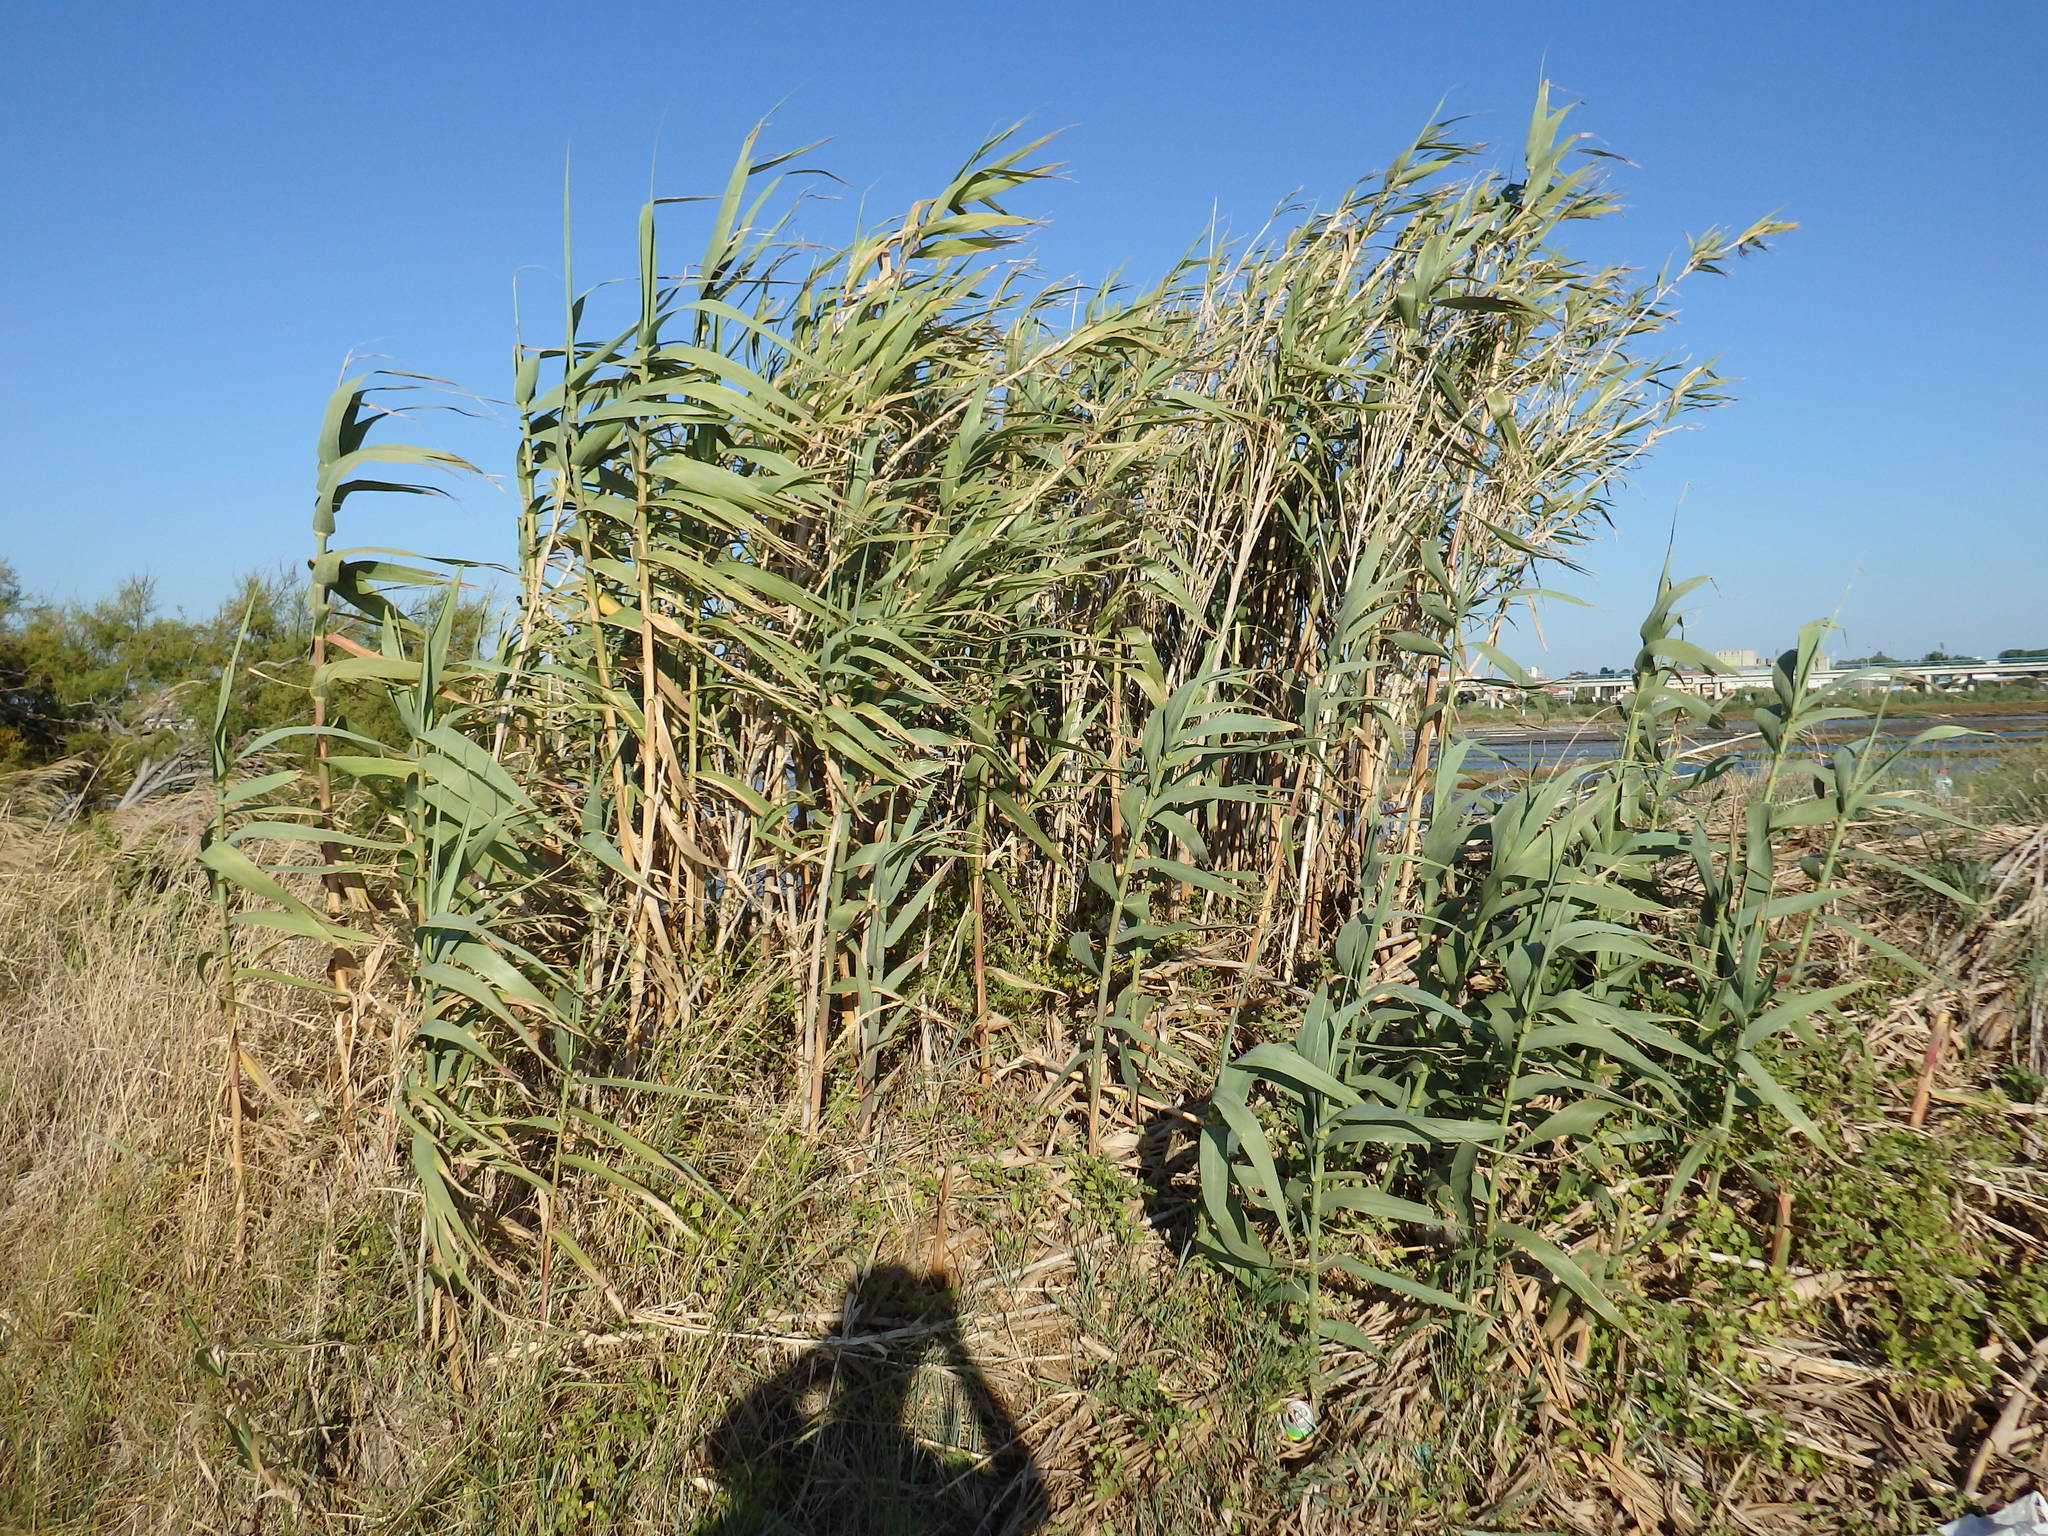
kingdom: Plantae
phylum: Tracheophyta
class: Liliopsida
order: Poales
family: Poaceae
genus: Arundo
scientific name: Arundo donax
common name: Giant reed
